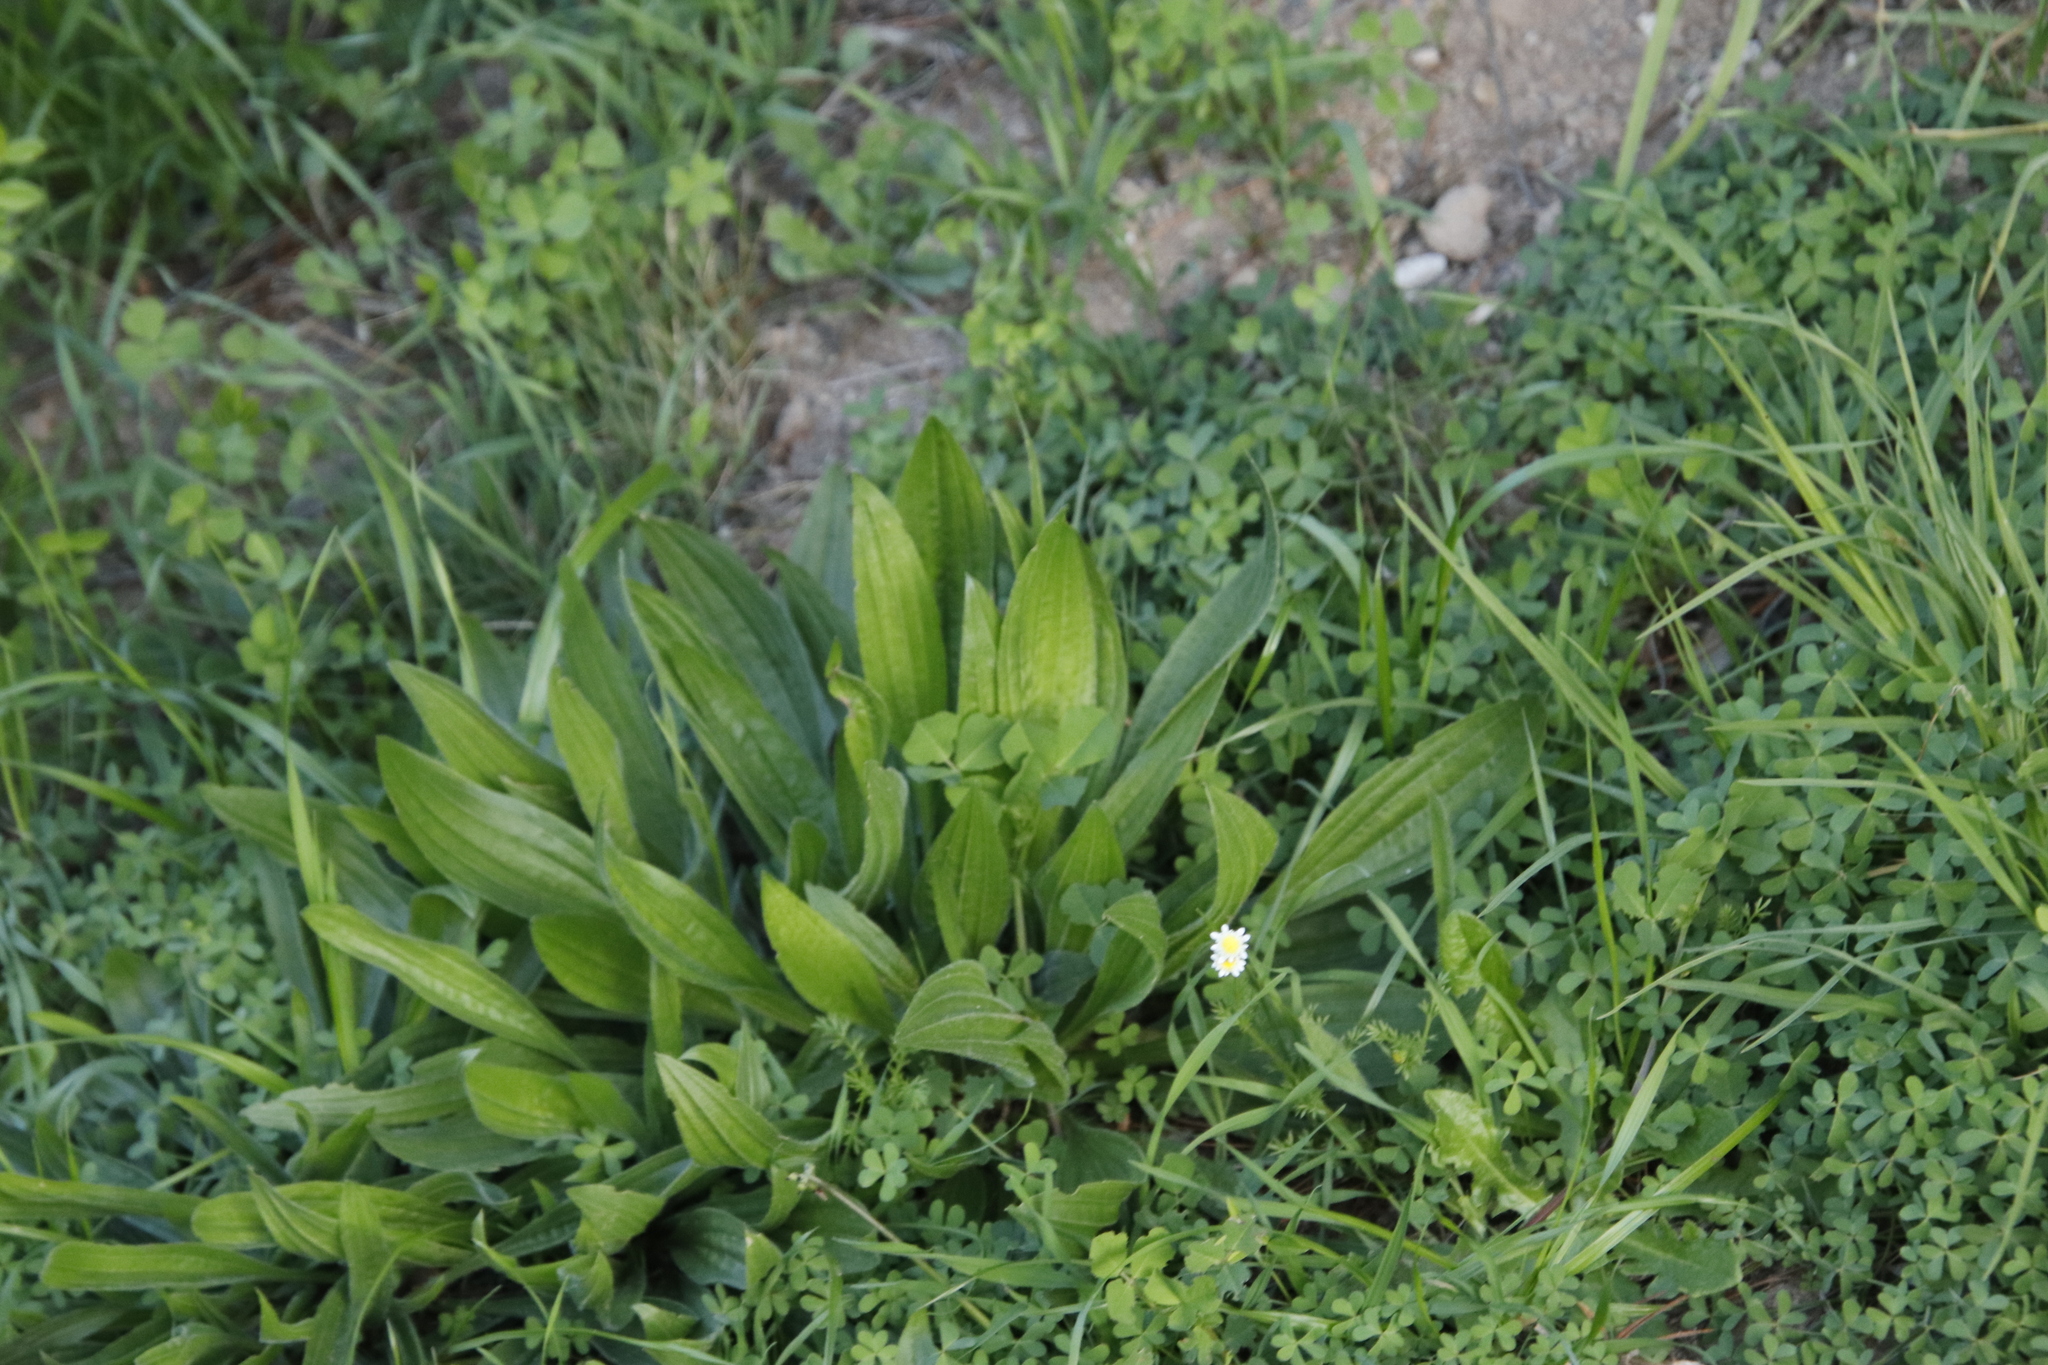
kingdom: Plantae
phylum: Tracheophyta
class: Magnoliopsida
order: Lamiales
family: Plantaginaceae
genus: Plantago
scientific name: Plantago lanceolata
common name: Ribwort plantain
